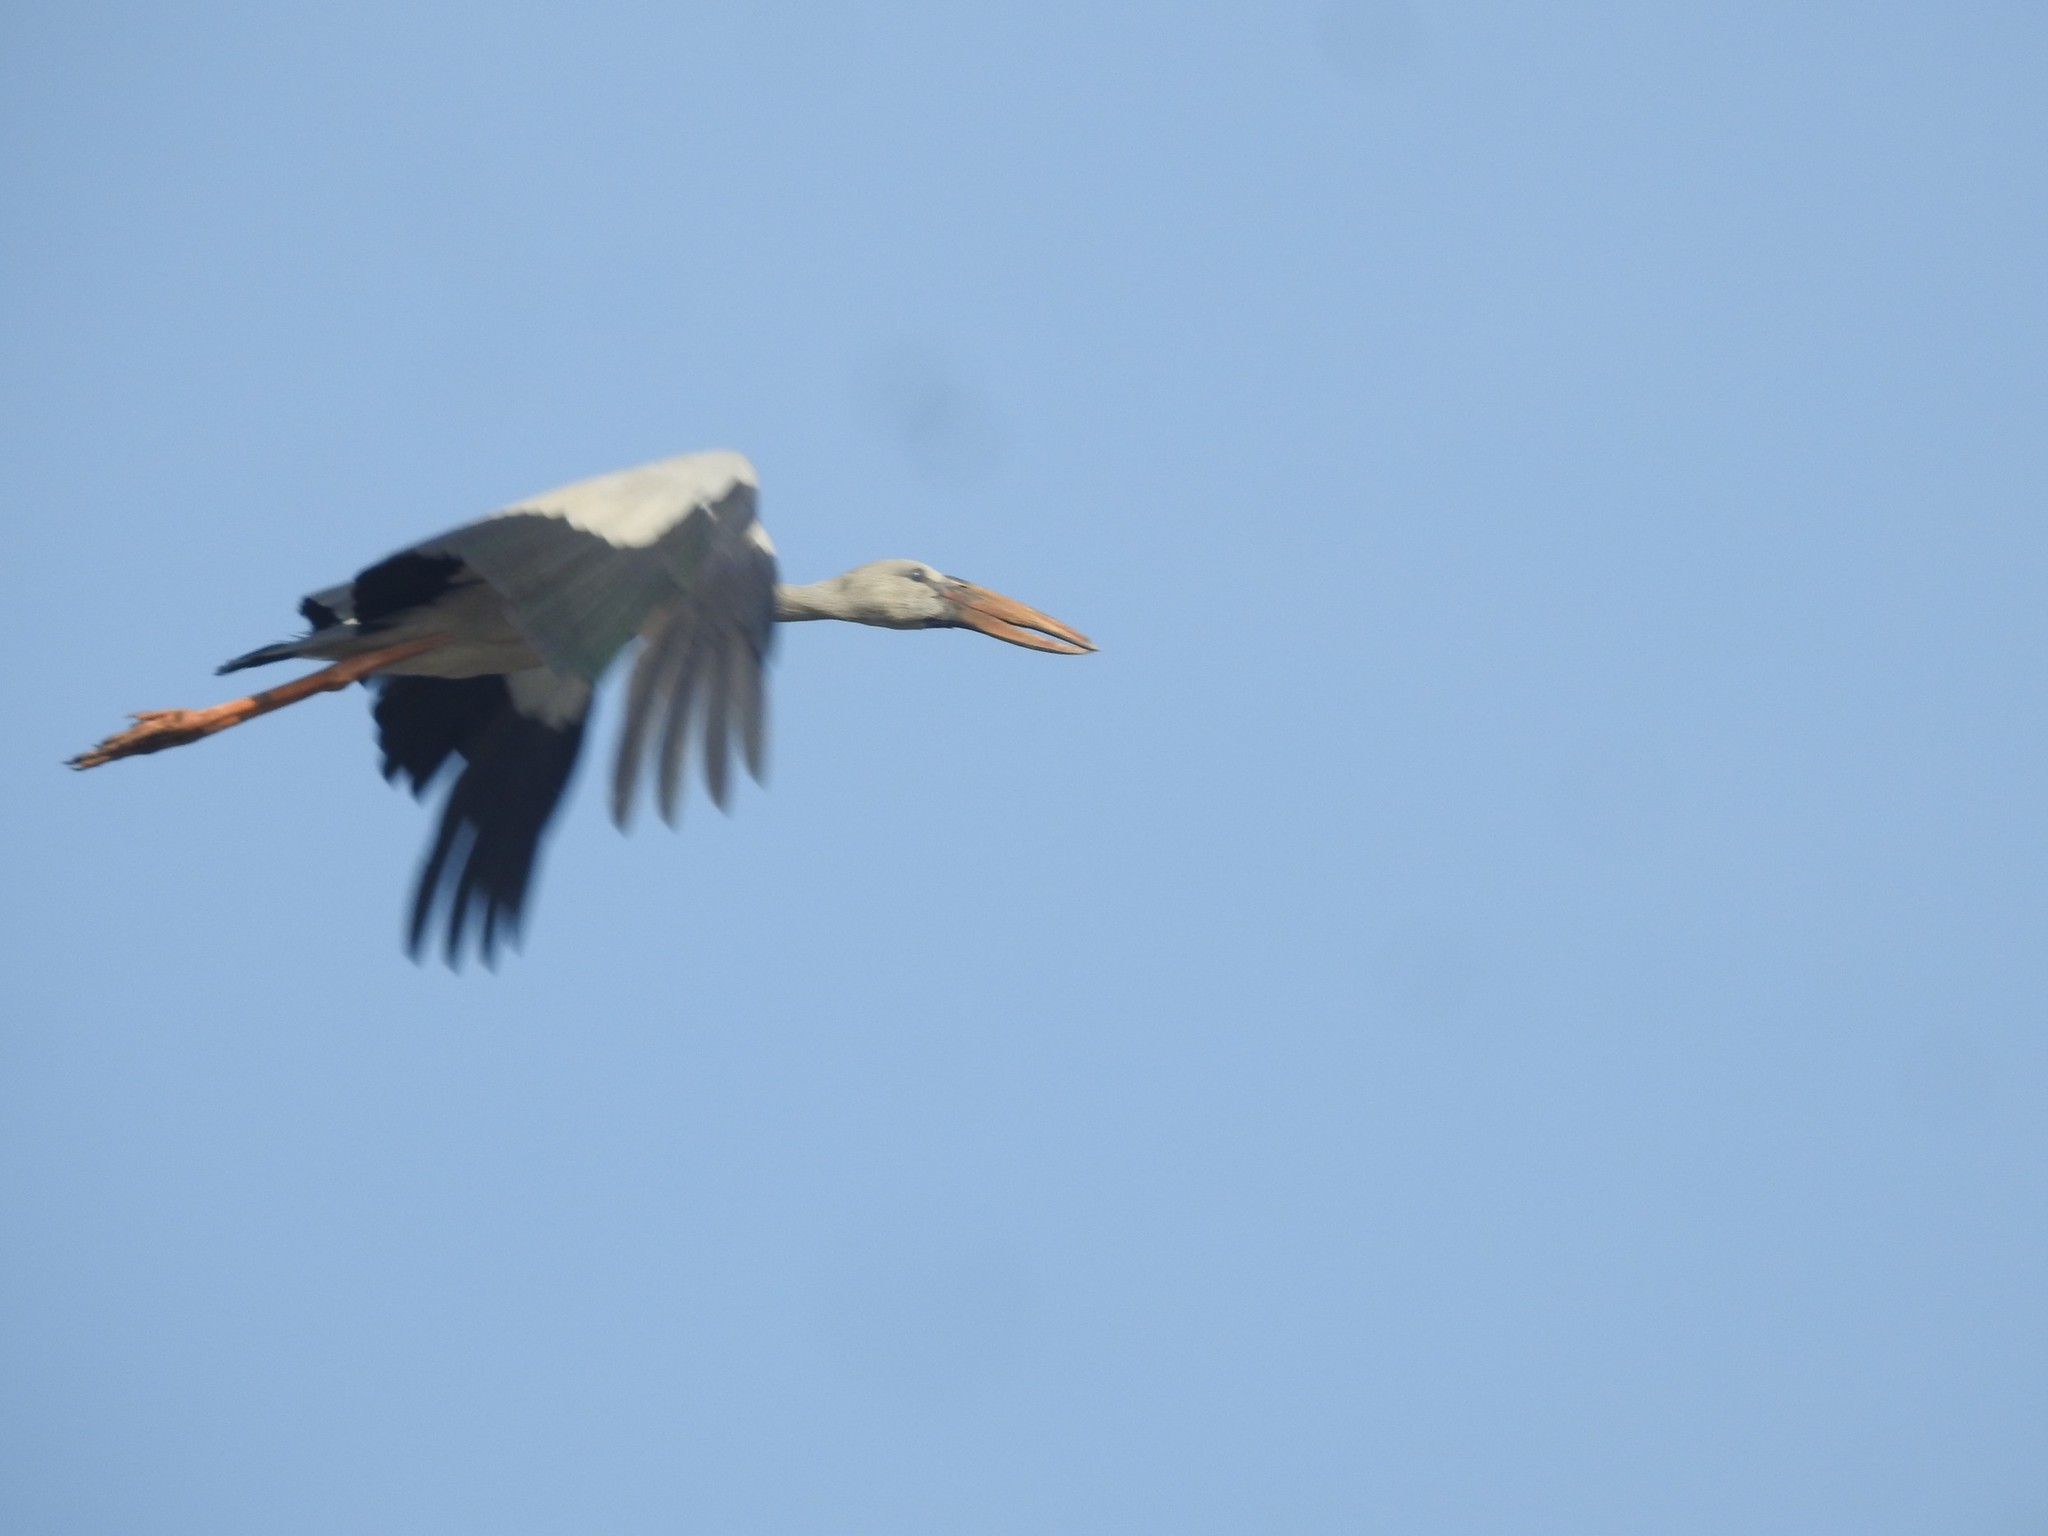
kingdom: Animalia
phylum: Chordata
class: Aves
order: Ciconiiformes
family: Ciconiidae
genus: Anastomus
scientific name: Anastomus oscitans
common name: Asian openbill
